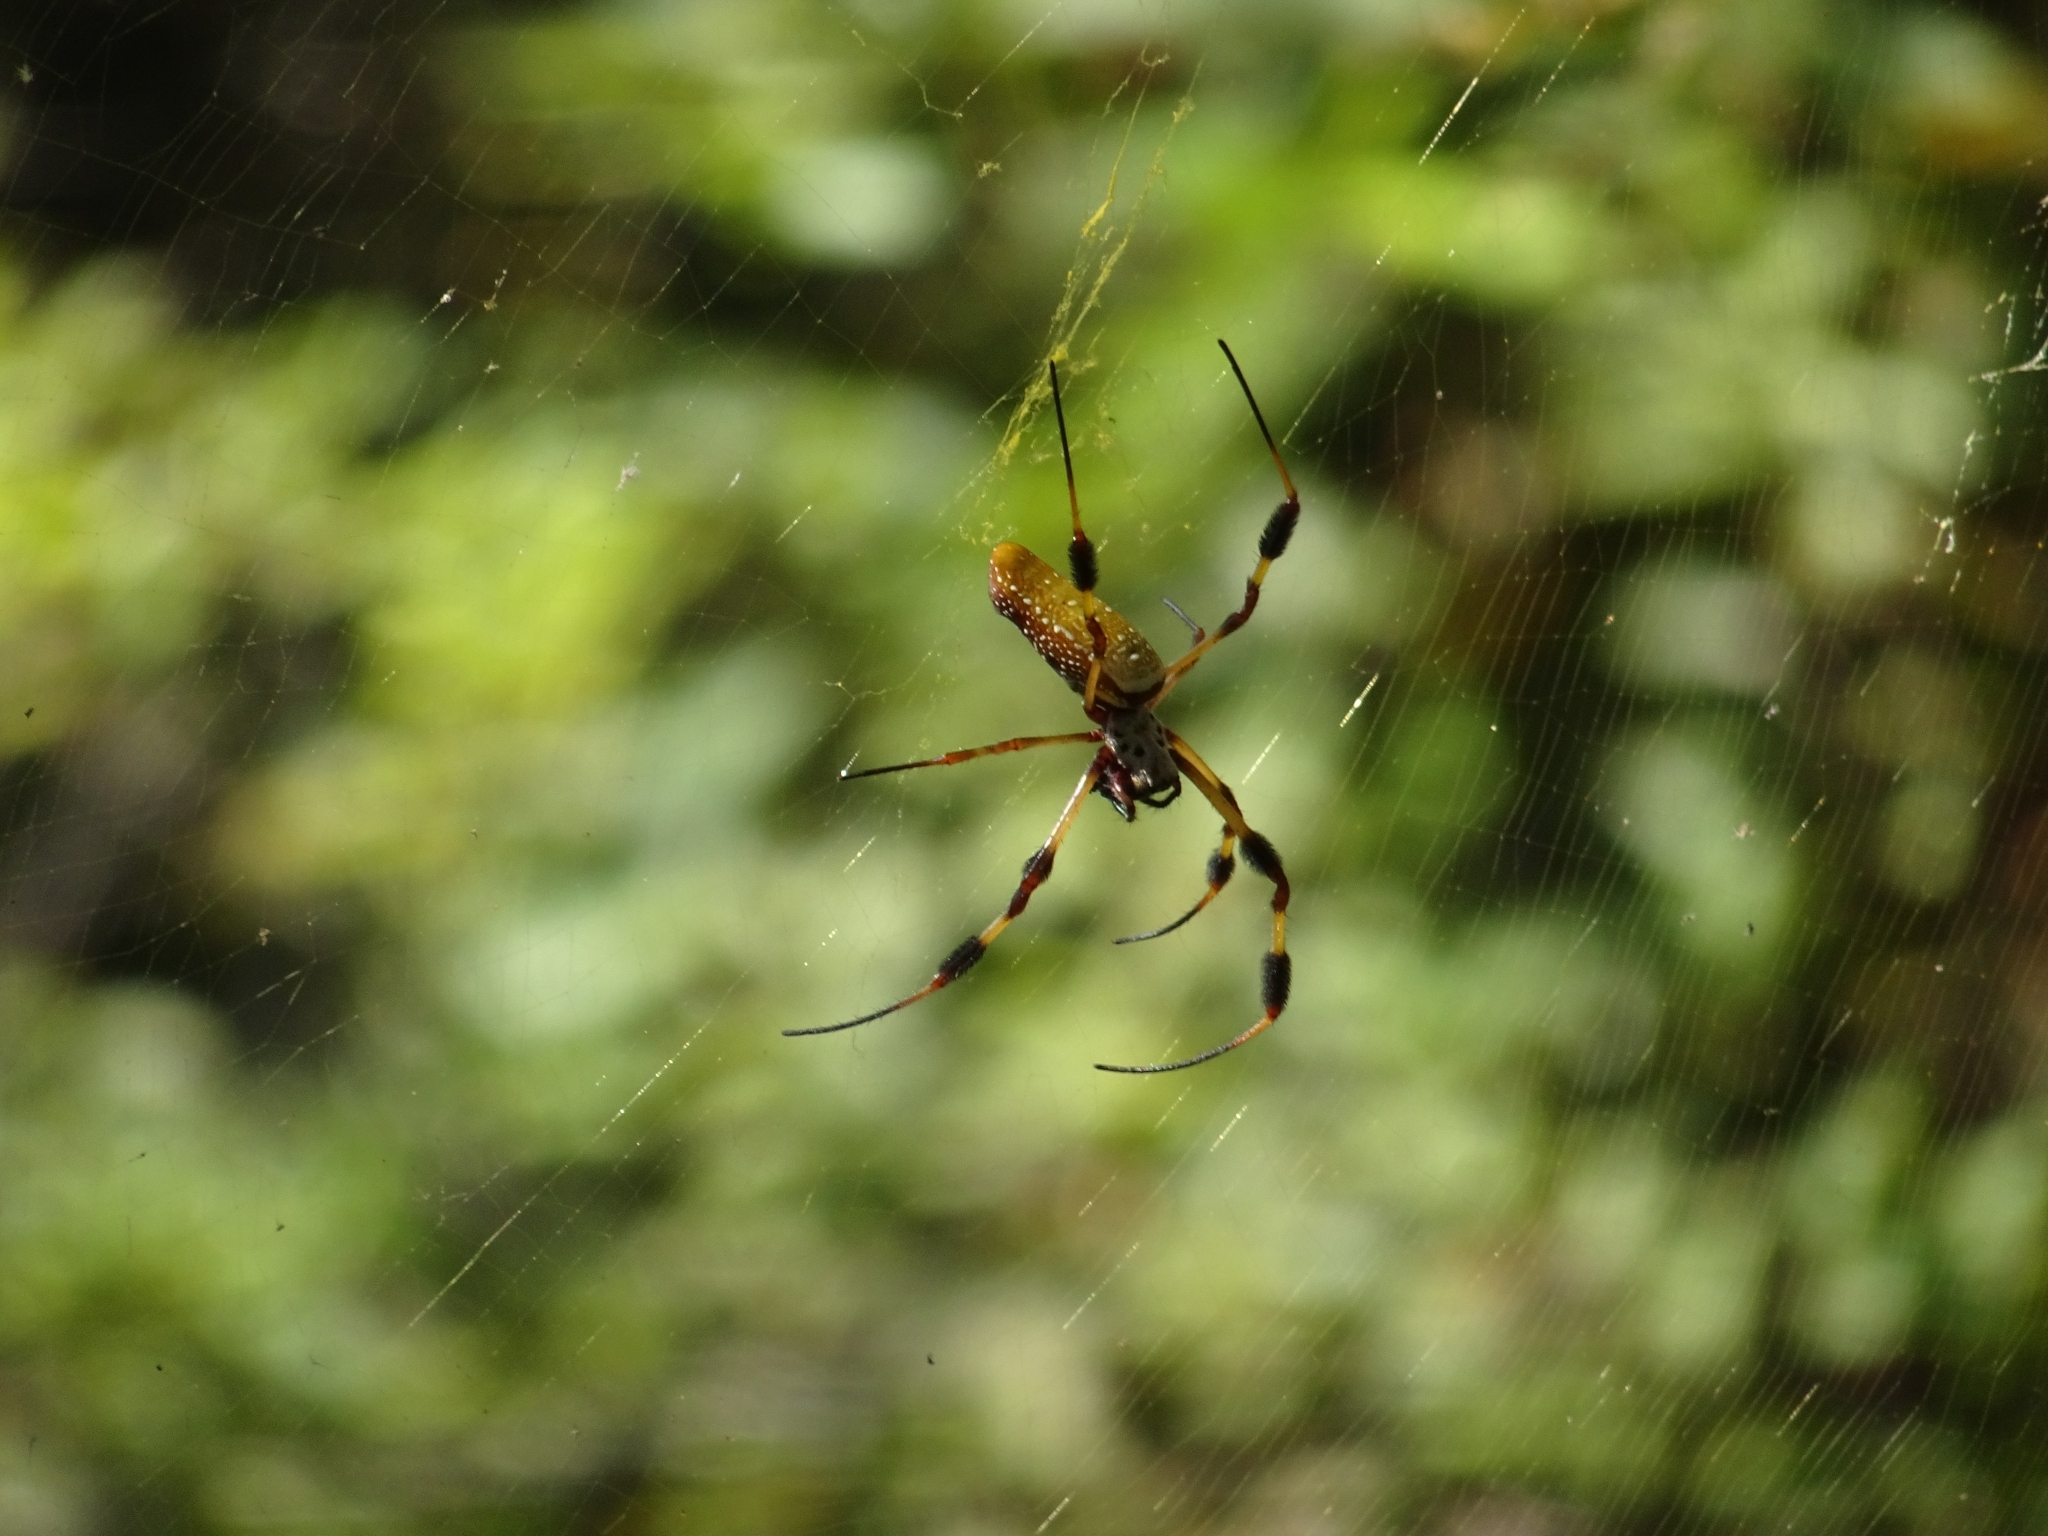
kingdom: Animalia
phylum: Arthropoda
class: Arachnida
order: Araneae
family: Araneidae
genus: Trichonephila
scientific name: Trichonephila clavipes
